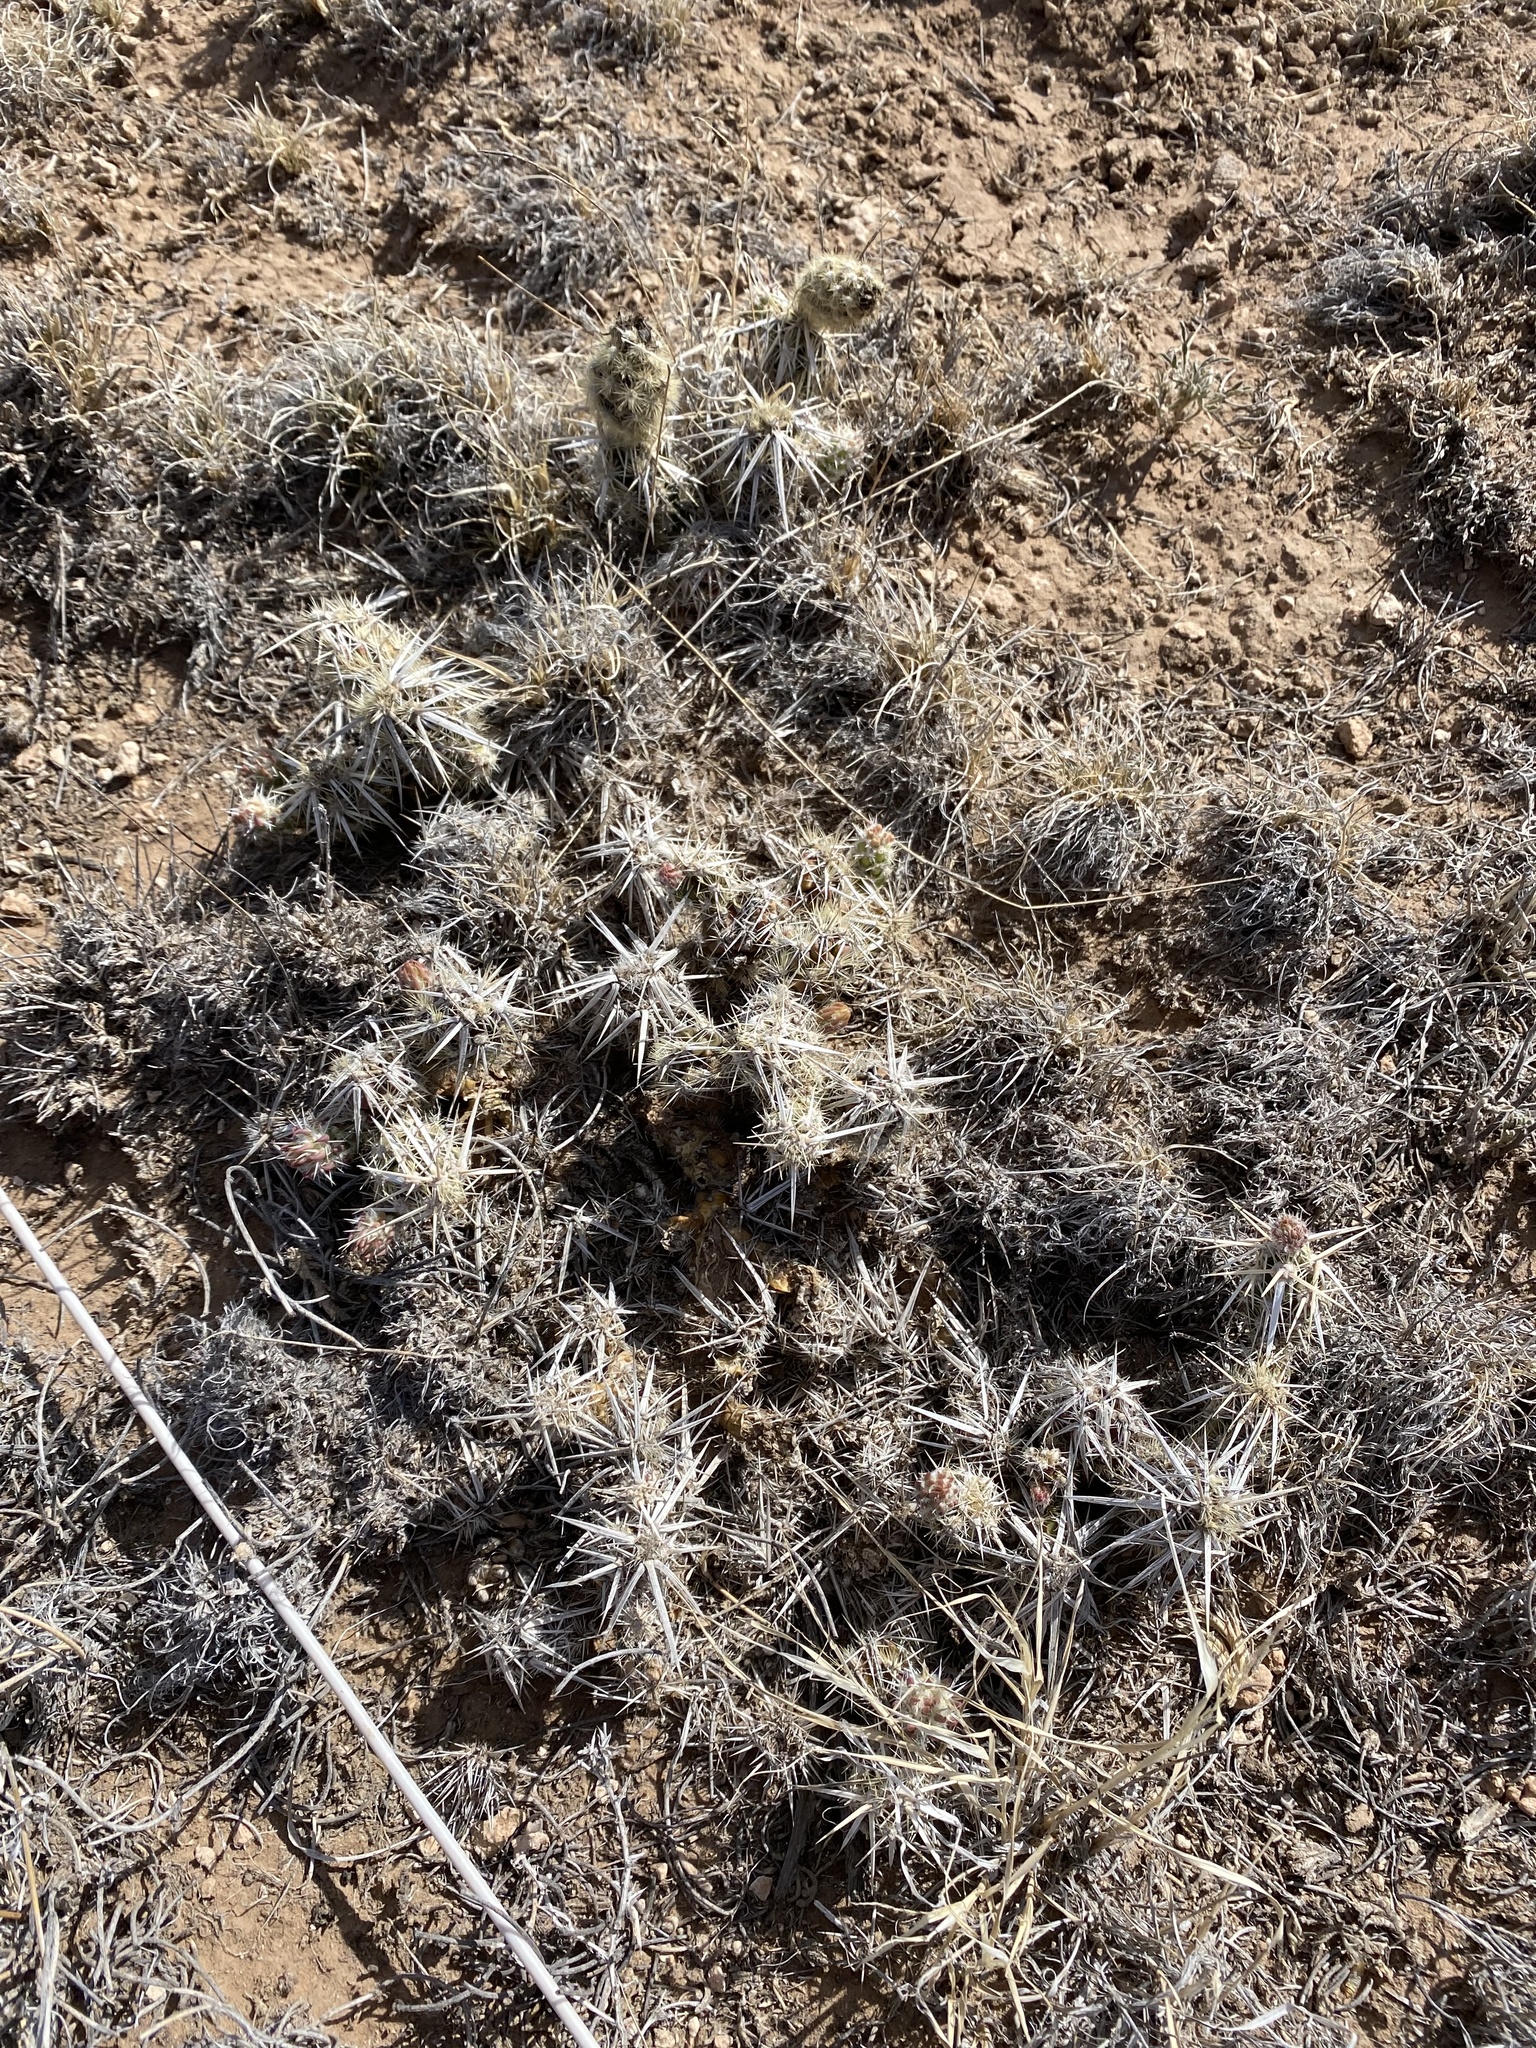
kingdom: Plantae
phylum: Tracheophyta
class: Magnoliopsida
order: Caryophyllales
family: Cactaceae
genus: Grusonia
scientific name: Grusonia clavata
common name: Club cholla
